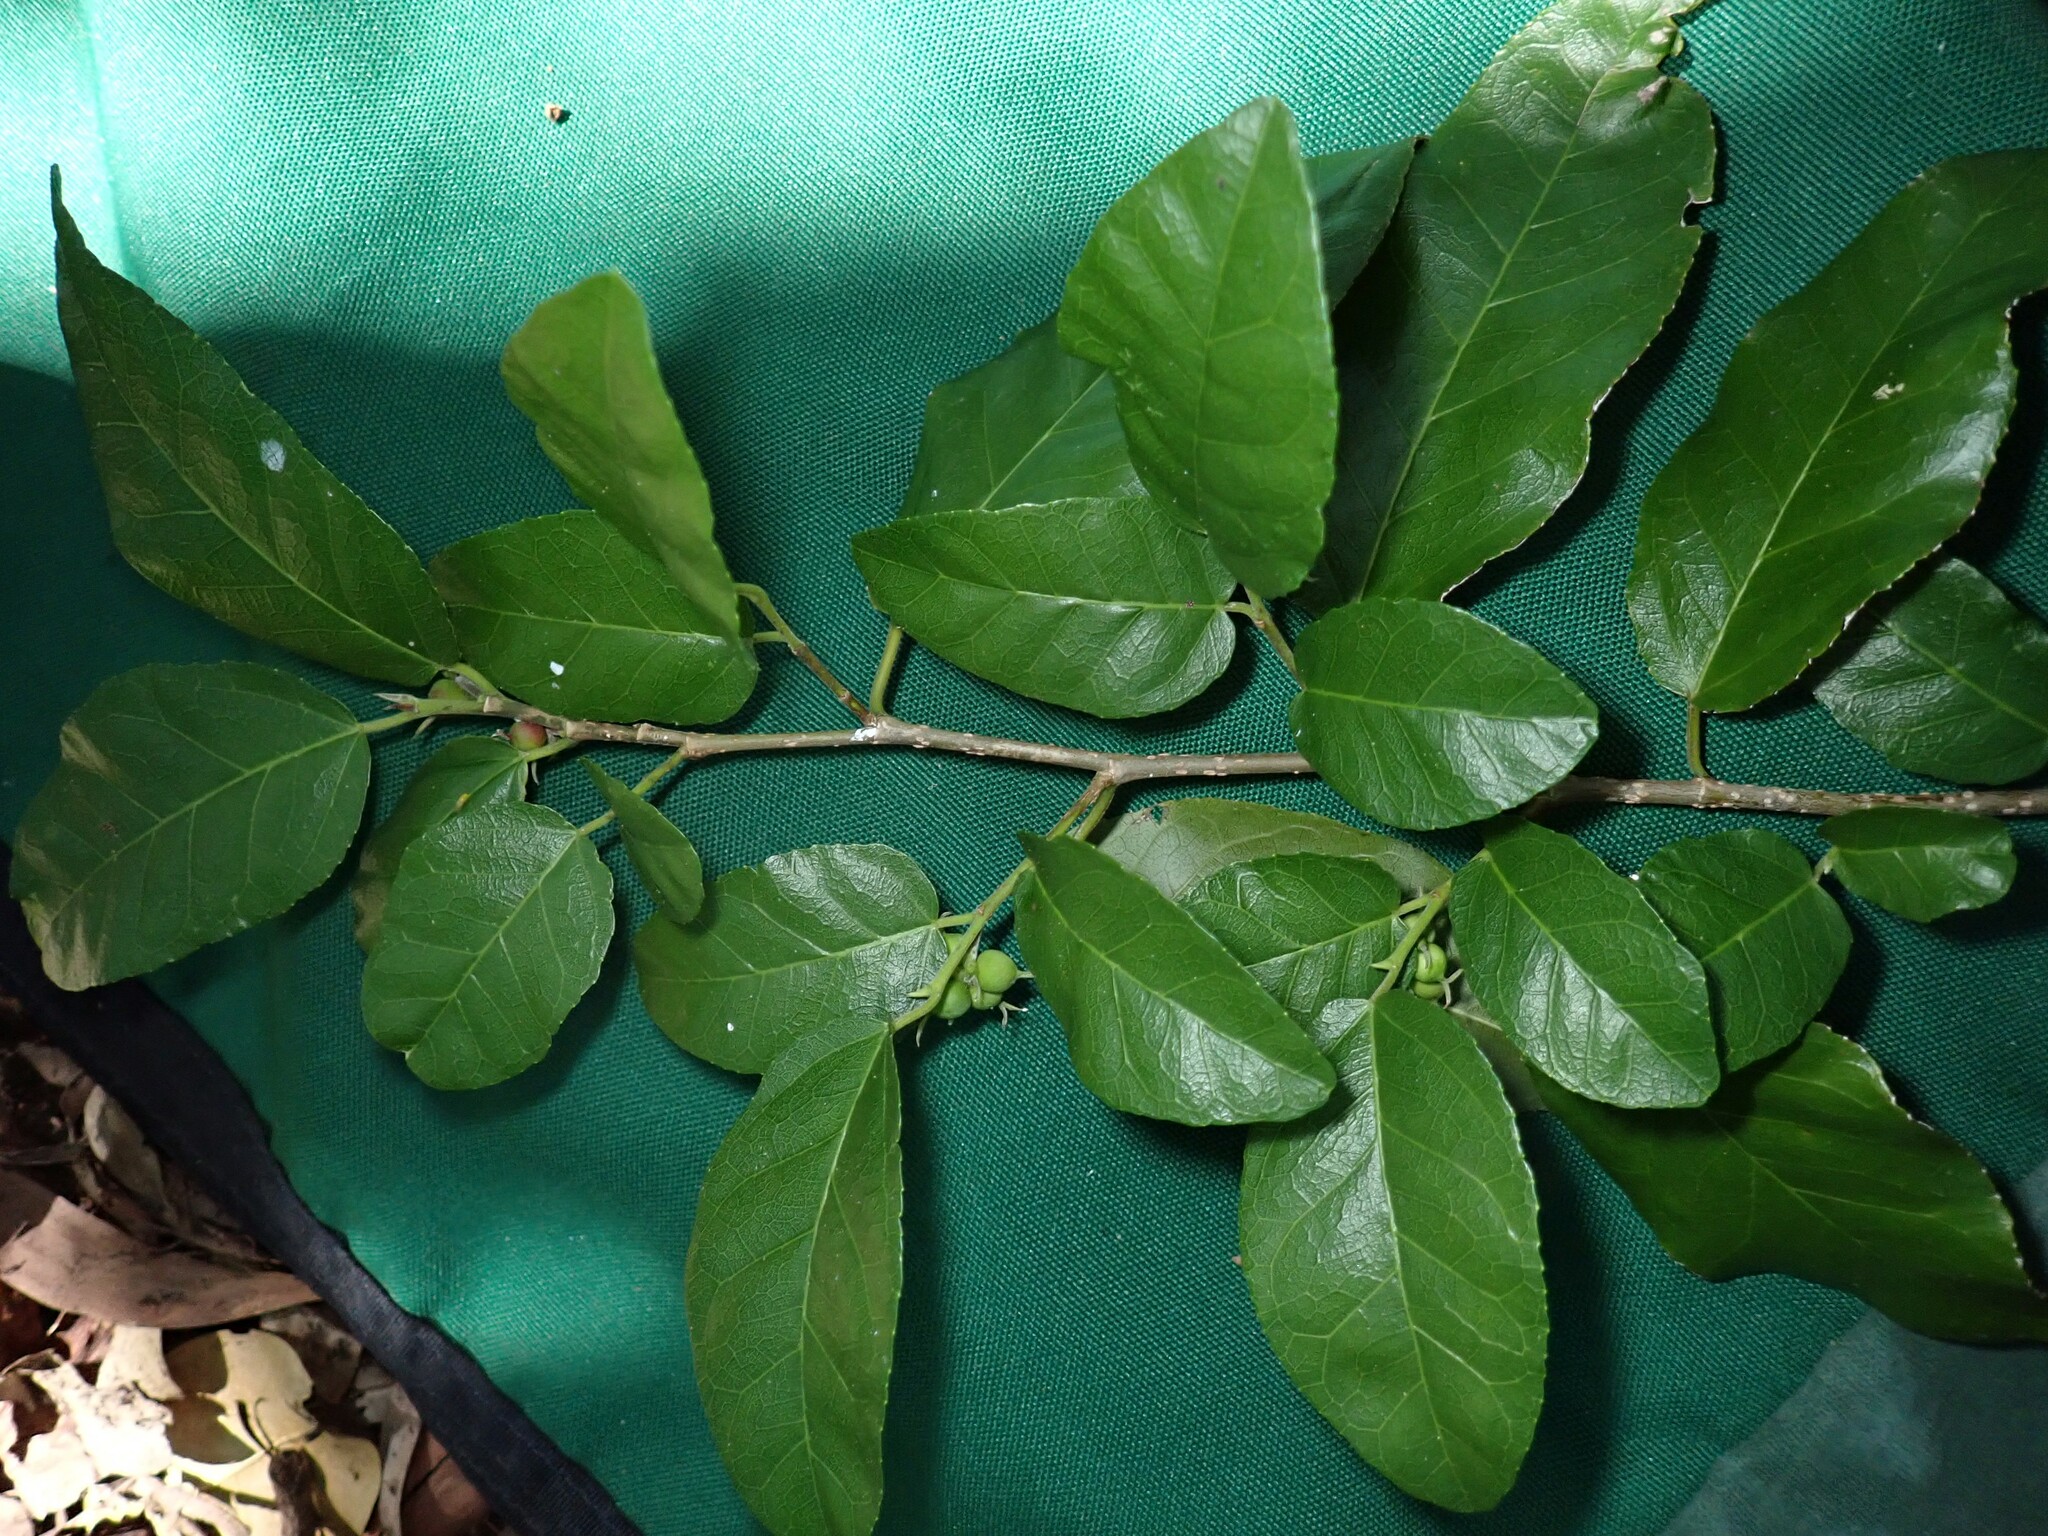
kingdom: Plantae
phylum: Tracheophyta
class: Magnoliopsida
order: Rosales
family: Moraceae
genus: Paratrophis
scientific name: Paratrophis pendulina
